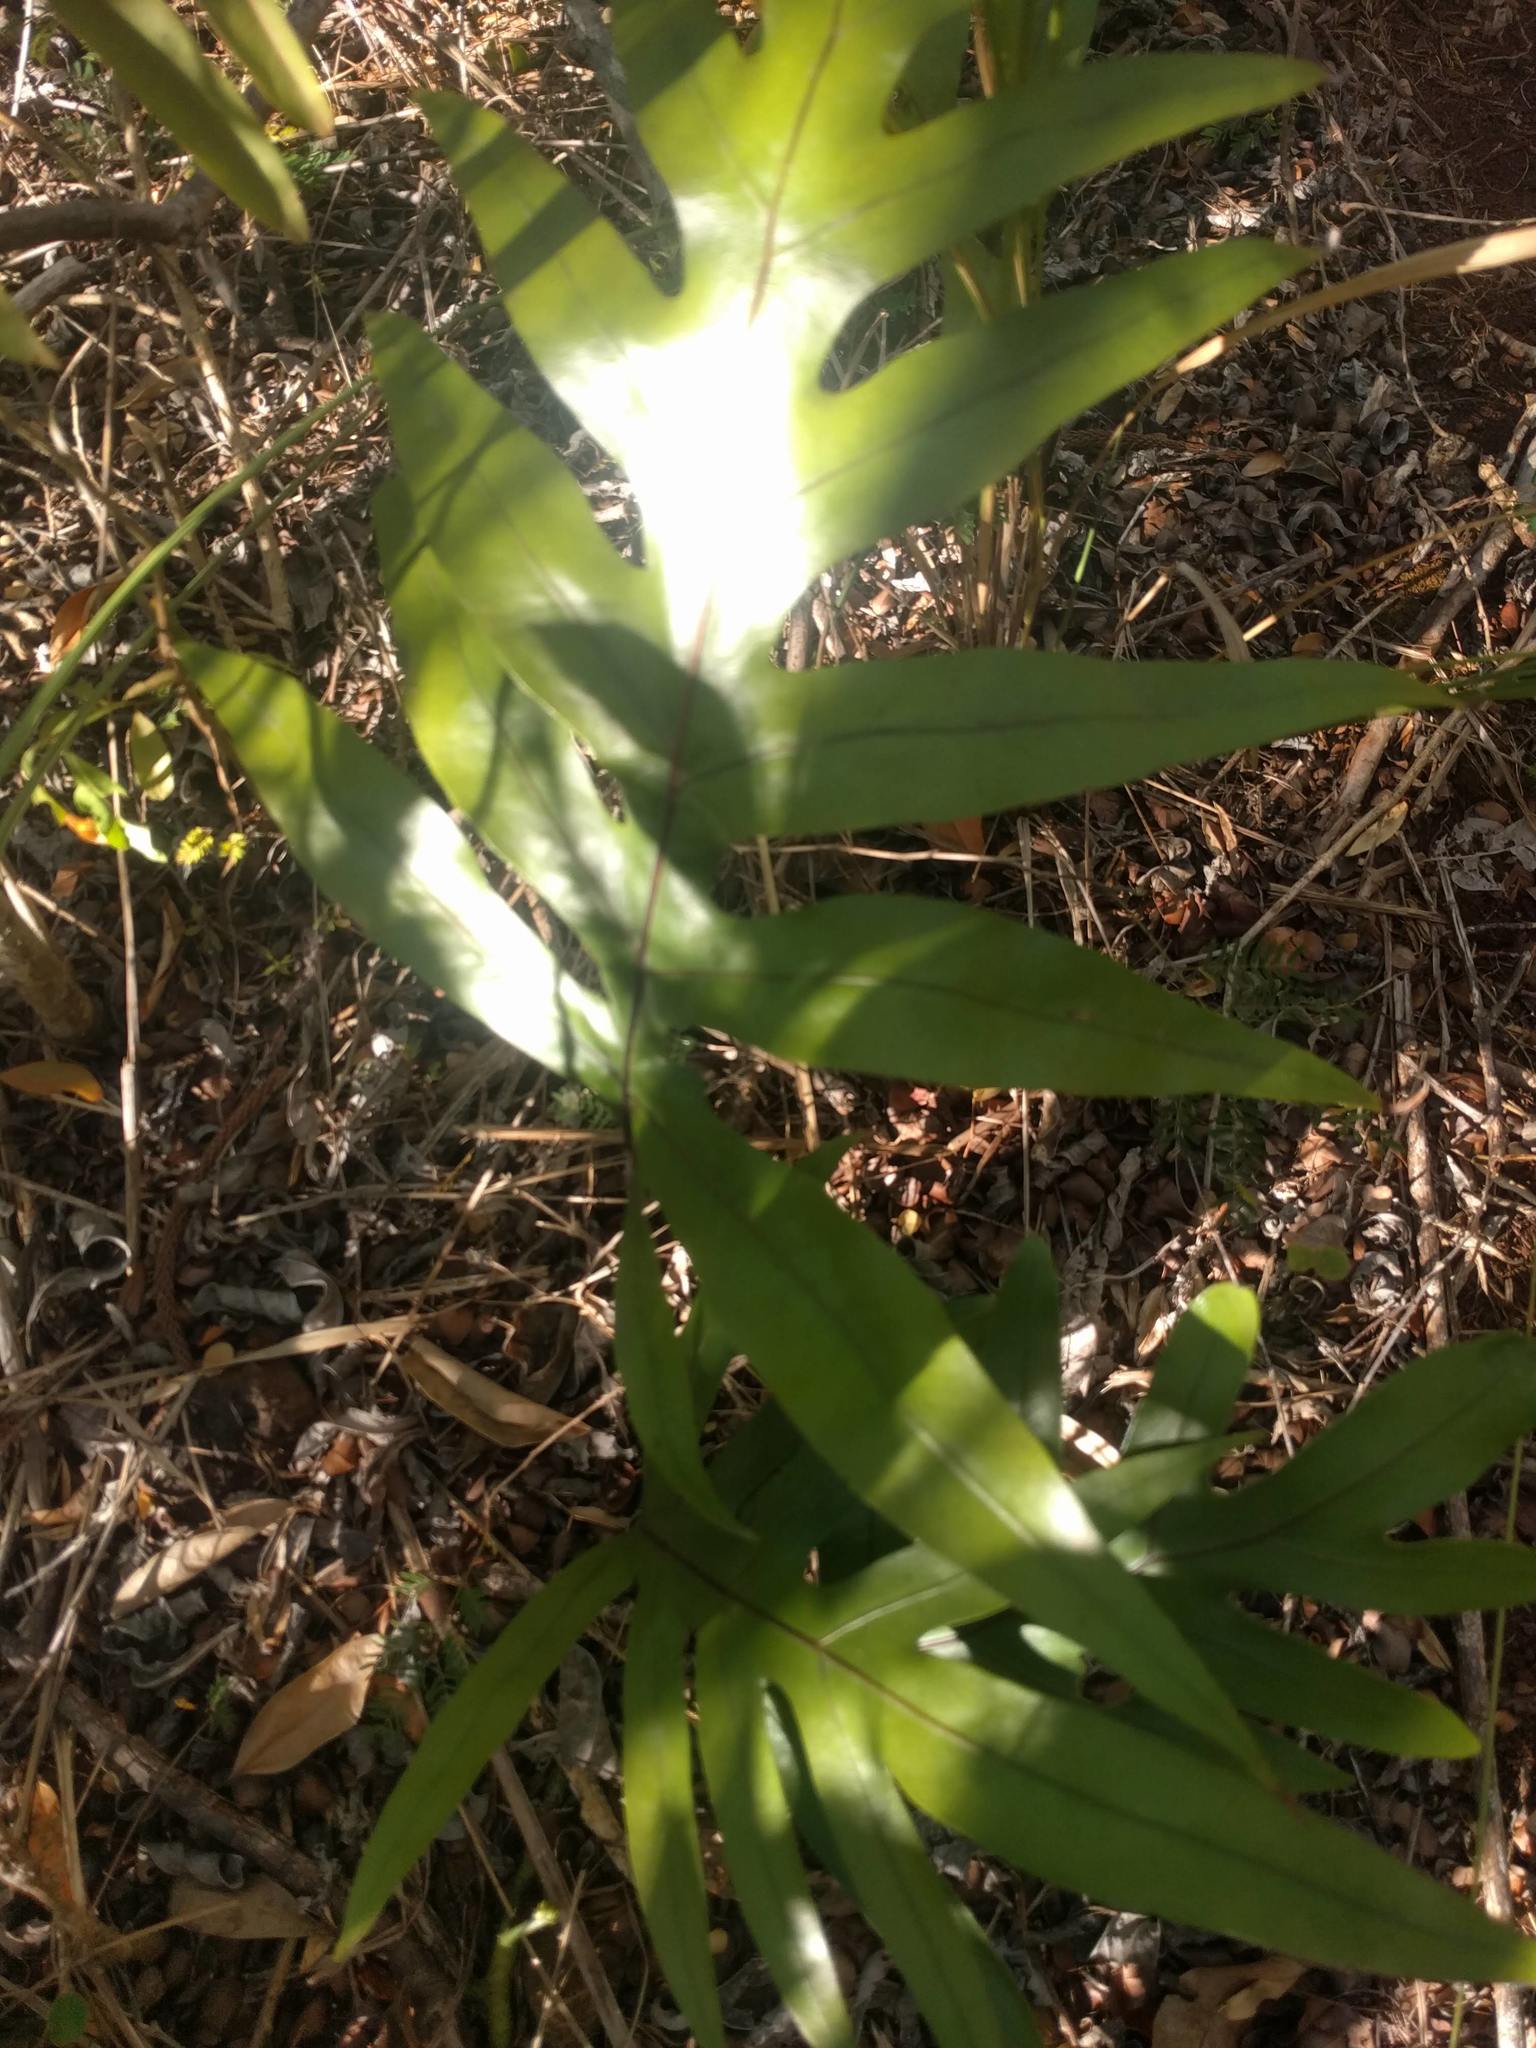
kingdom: Plantae
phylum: Tracheophyta
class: Polypodiopsida
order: Polypodiales
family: Polypodiaceae
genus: Microsorum
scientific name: Microsorum grossum
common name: Musk fern
